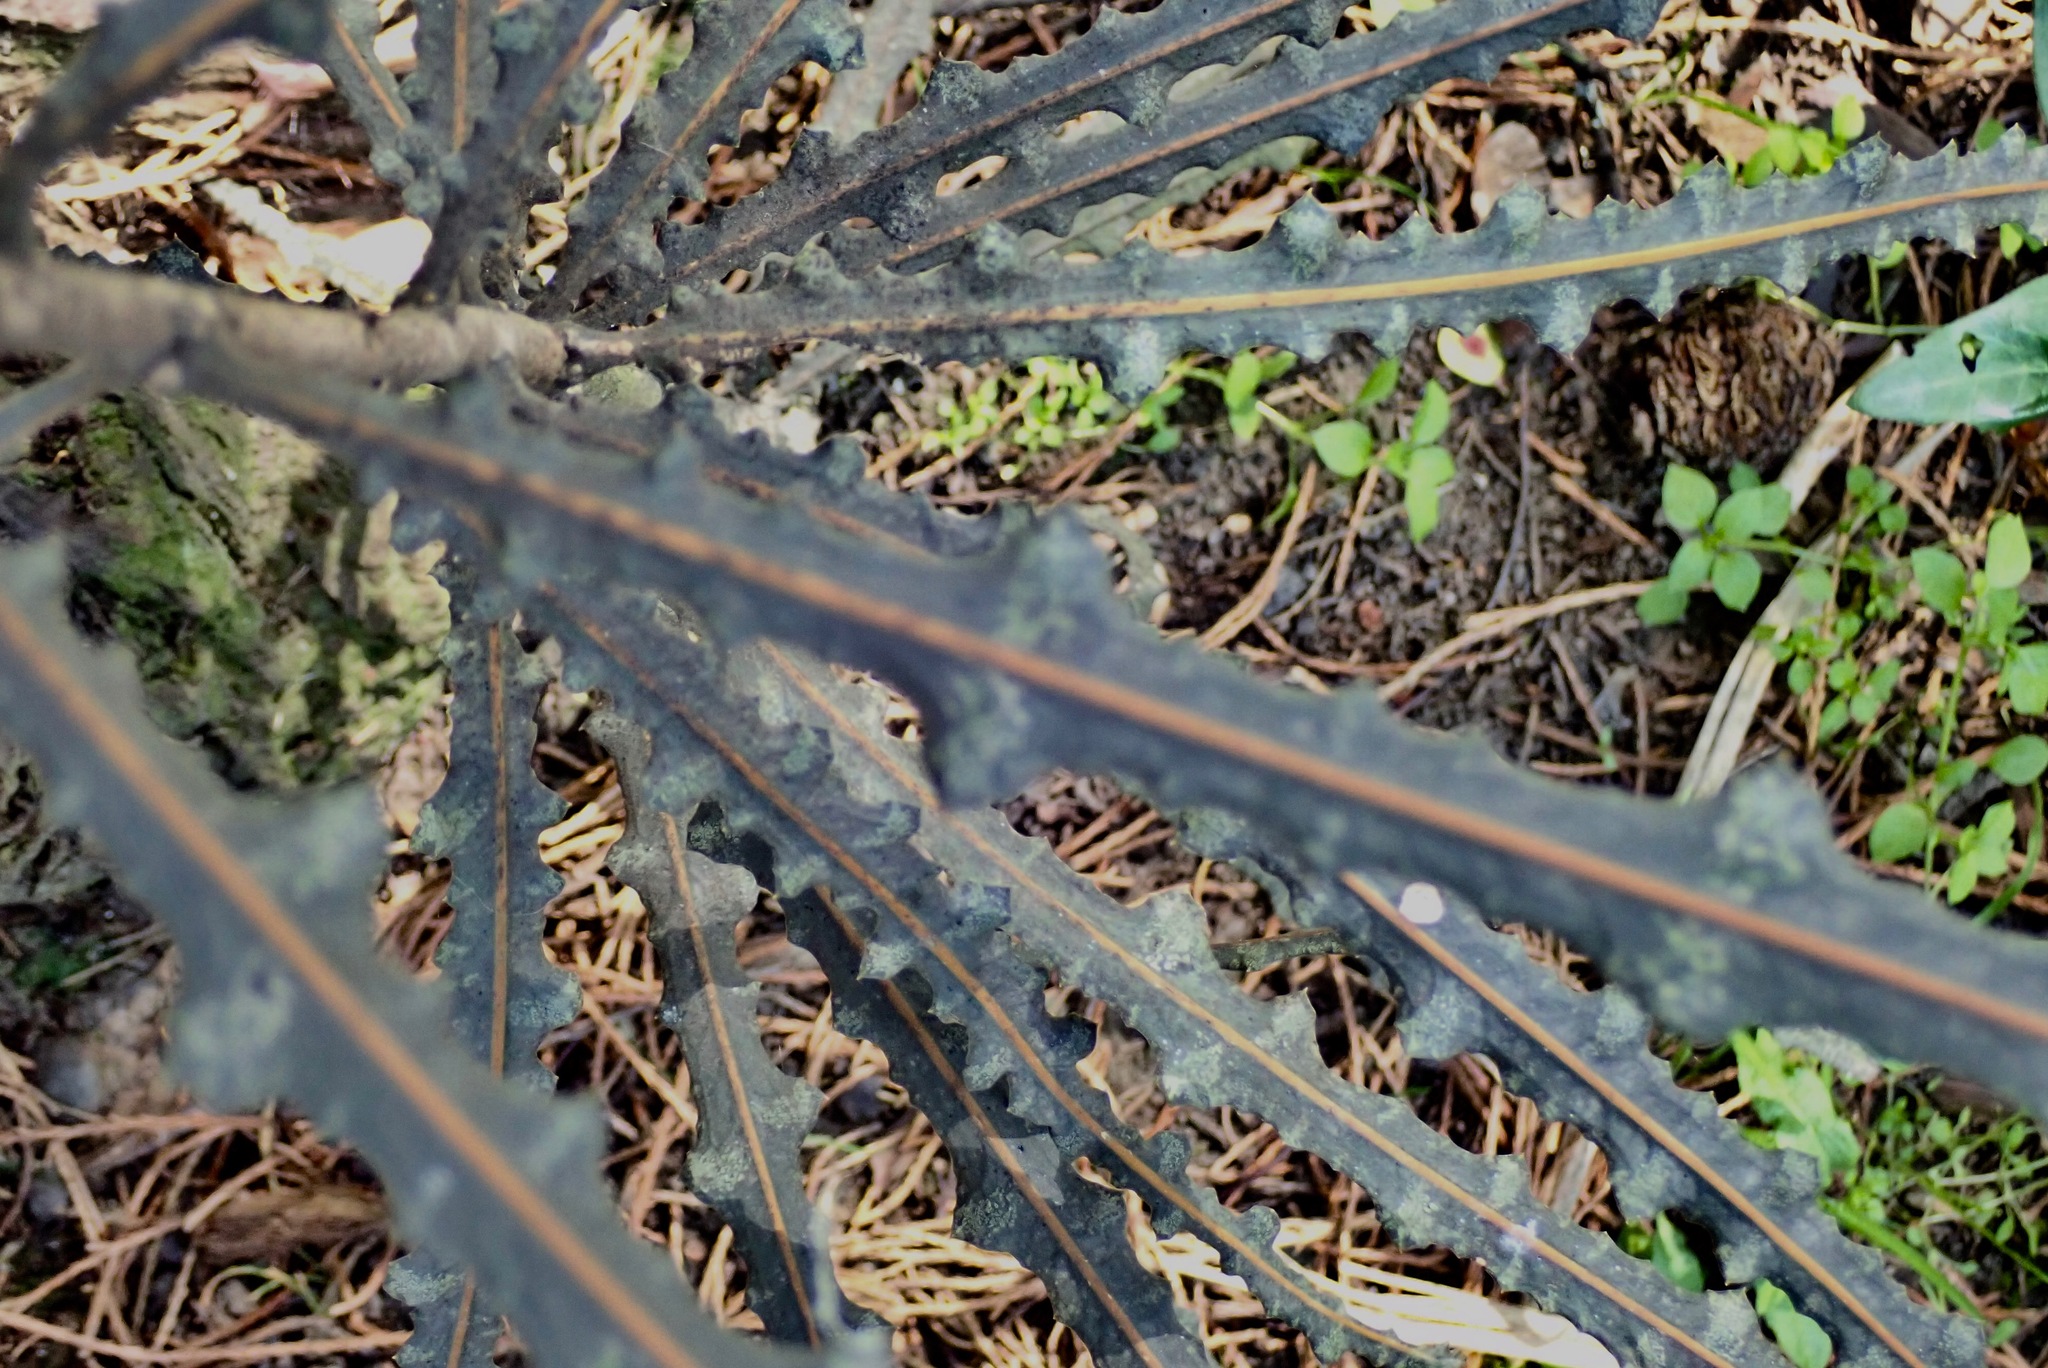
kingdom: Plantae
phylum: Tracheophyta
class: Magnoliopsida
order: Apiales
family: Araliaceae
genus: Pseudopanax
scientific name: Pseudopanax ferox
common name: Fierce lancewood
